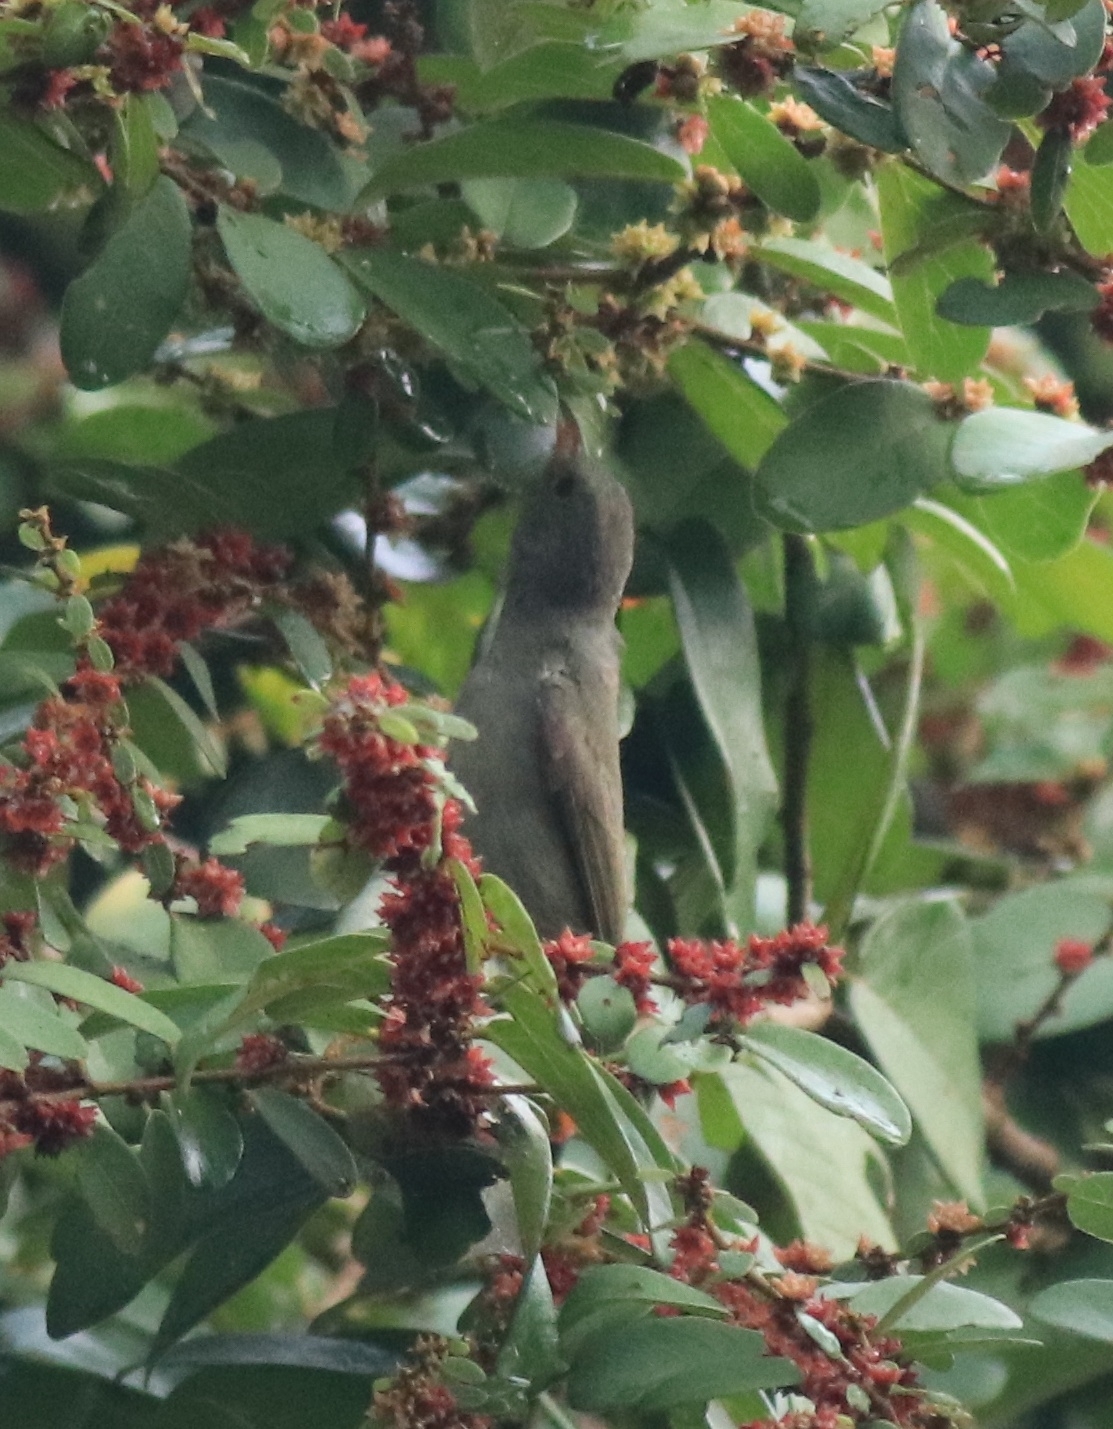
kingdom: Animalia
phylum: Chordata
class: Aves
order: Passeriformes
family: Dicaeidae
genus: Dicaeum
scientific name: Dicaeum erythrorhynchos
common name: Pale-billed flowerpecker
